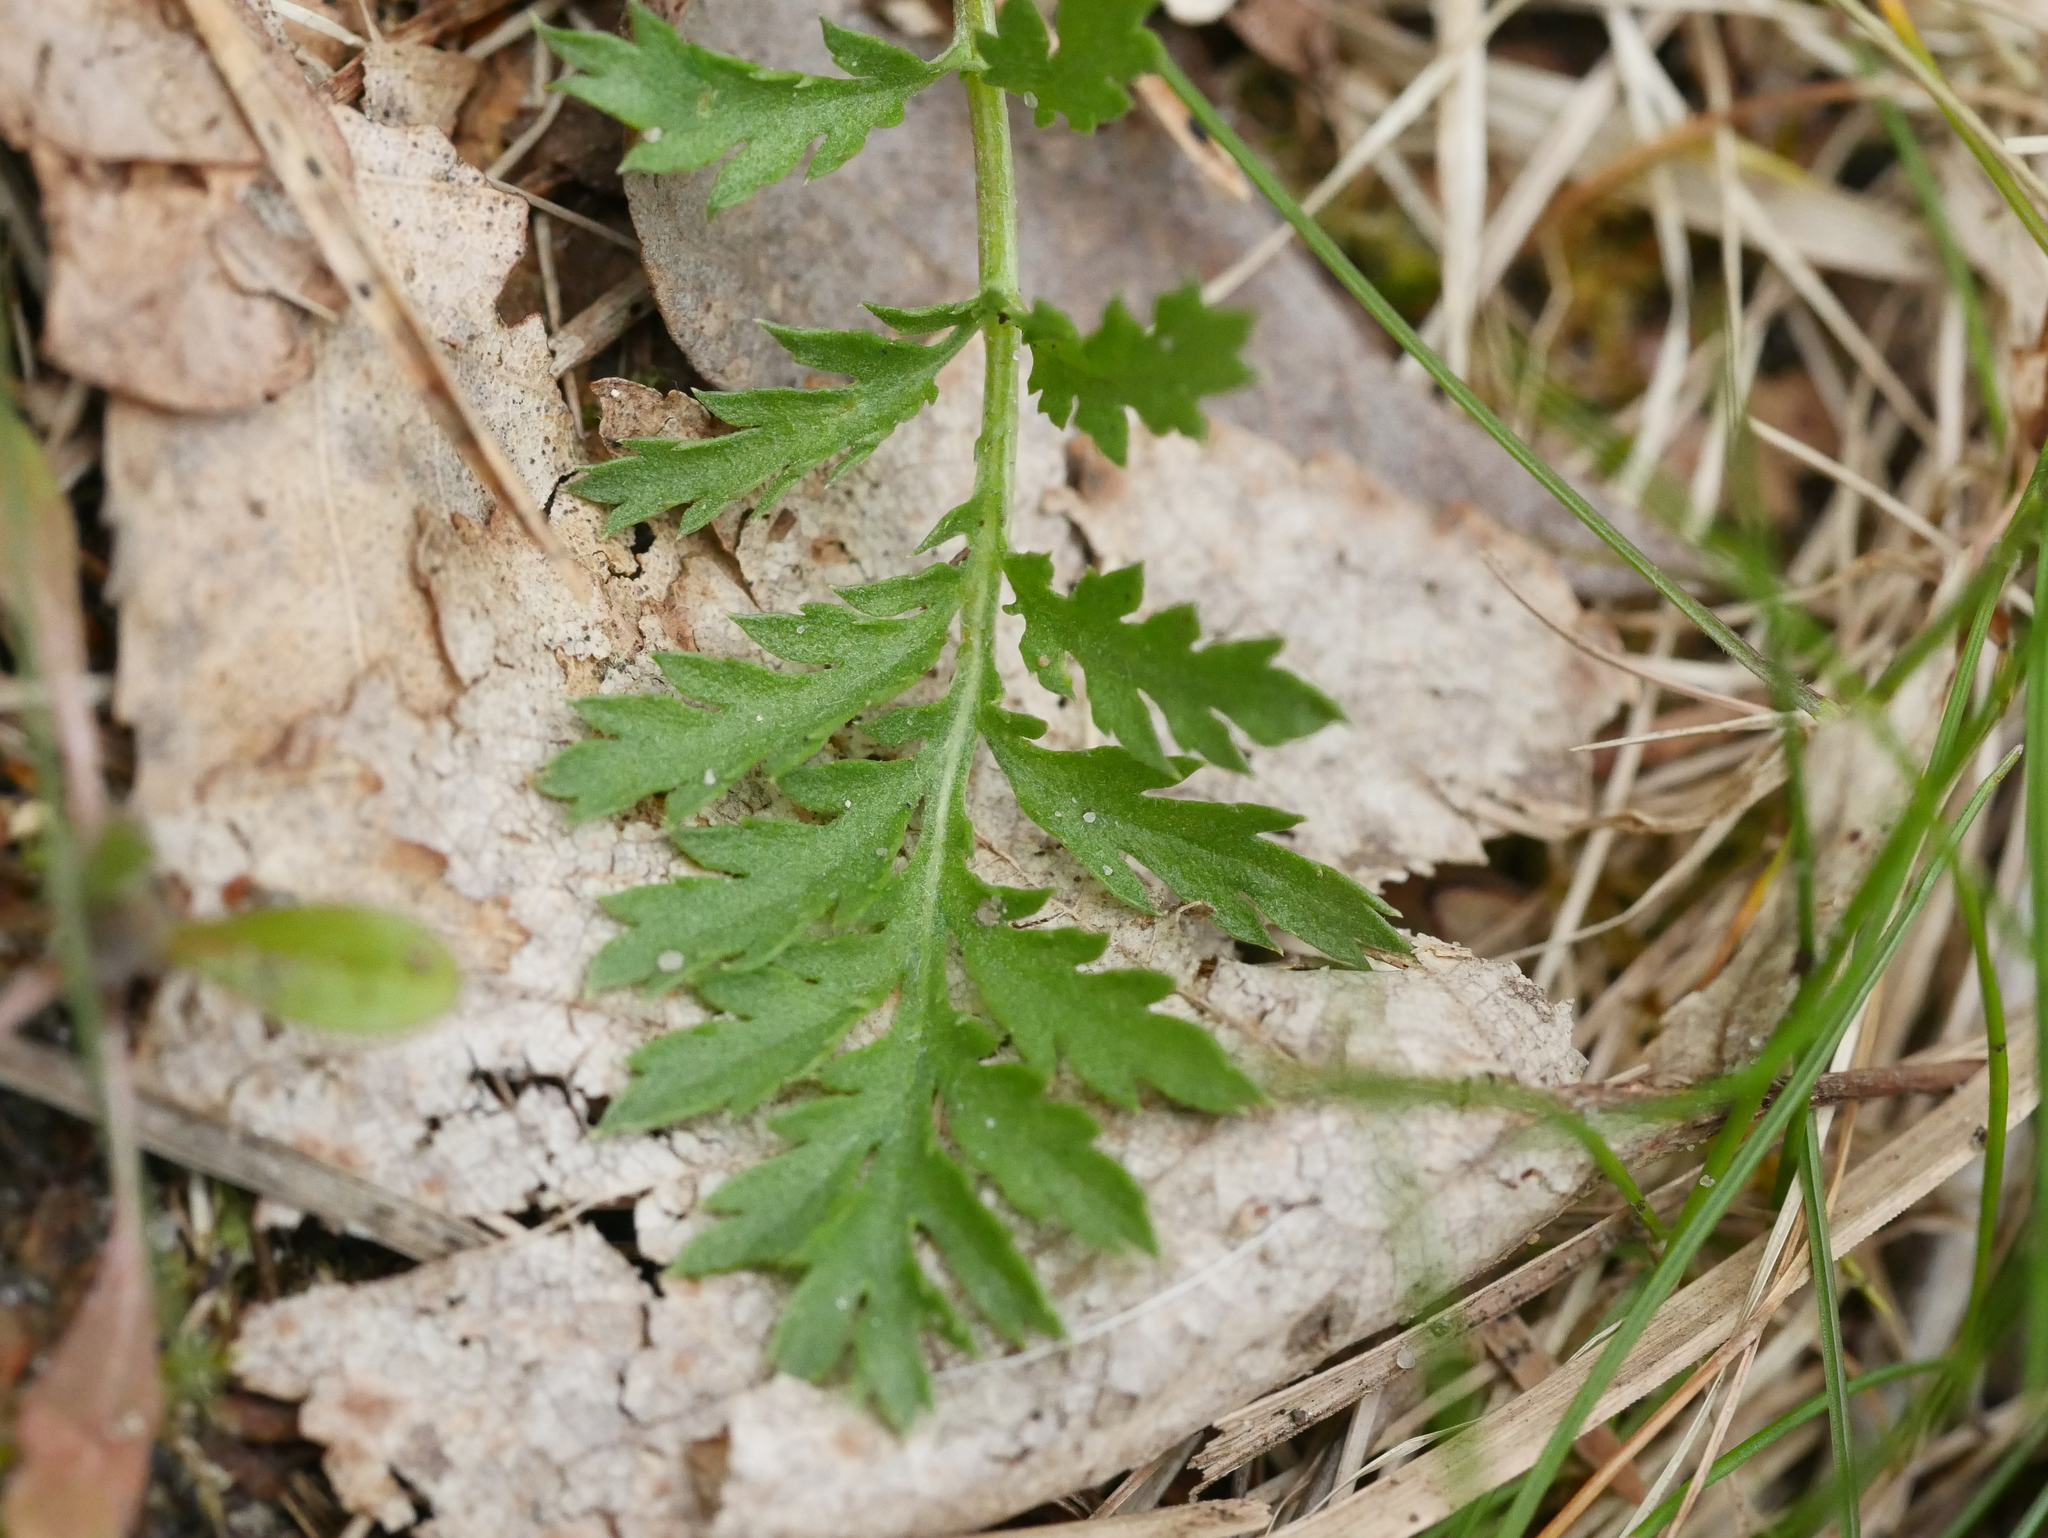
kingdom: Plantae
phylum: Tracheophyta
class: Magnoliopsida
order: Asterales
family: Asteraceae
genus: Tanacetum
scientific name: Tanacetum vulgare
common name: Common tansy
